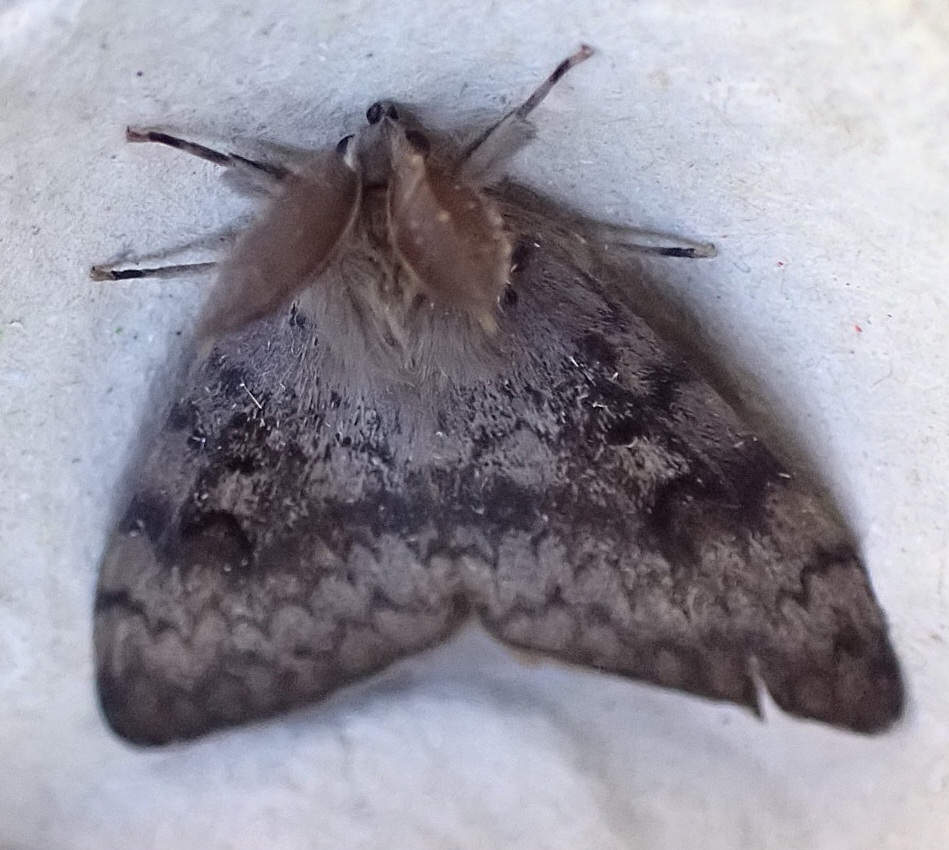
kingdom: Animalia
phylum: Arthropoda
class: Insecta
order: Lepidoptera
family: Erebidae
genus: Lymantria
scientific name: Lymantria dispar
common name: Gypsy moth
